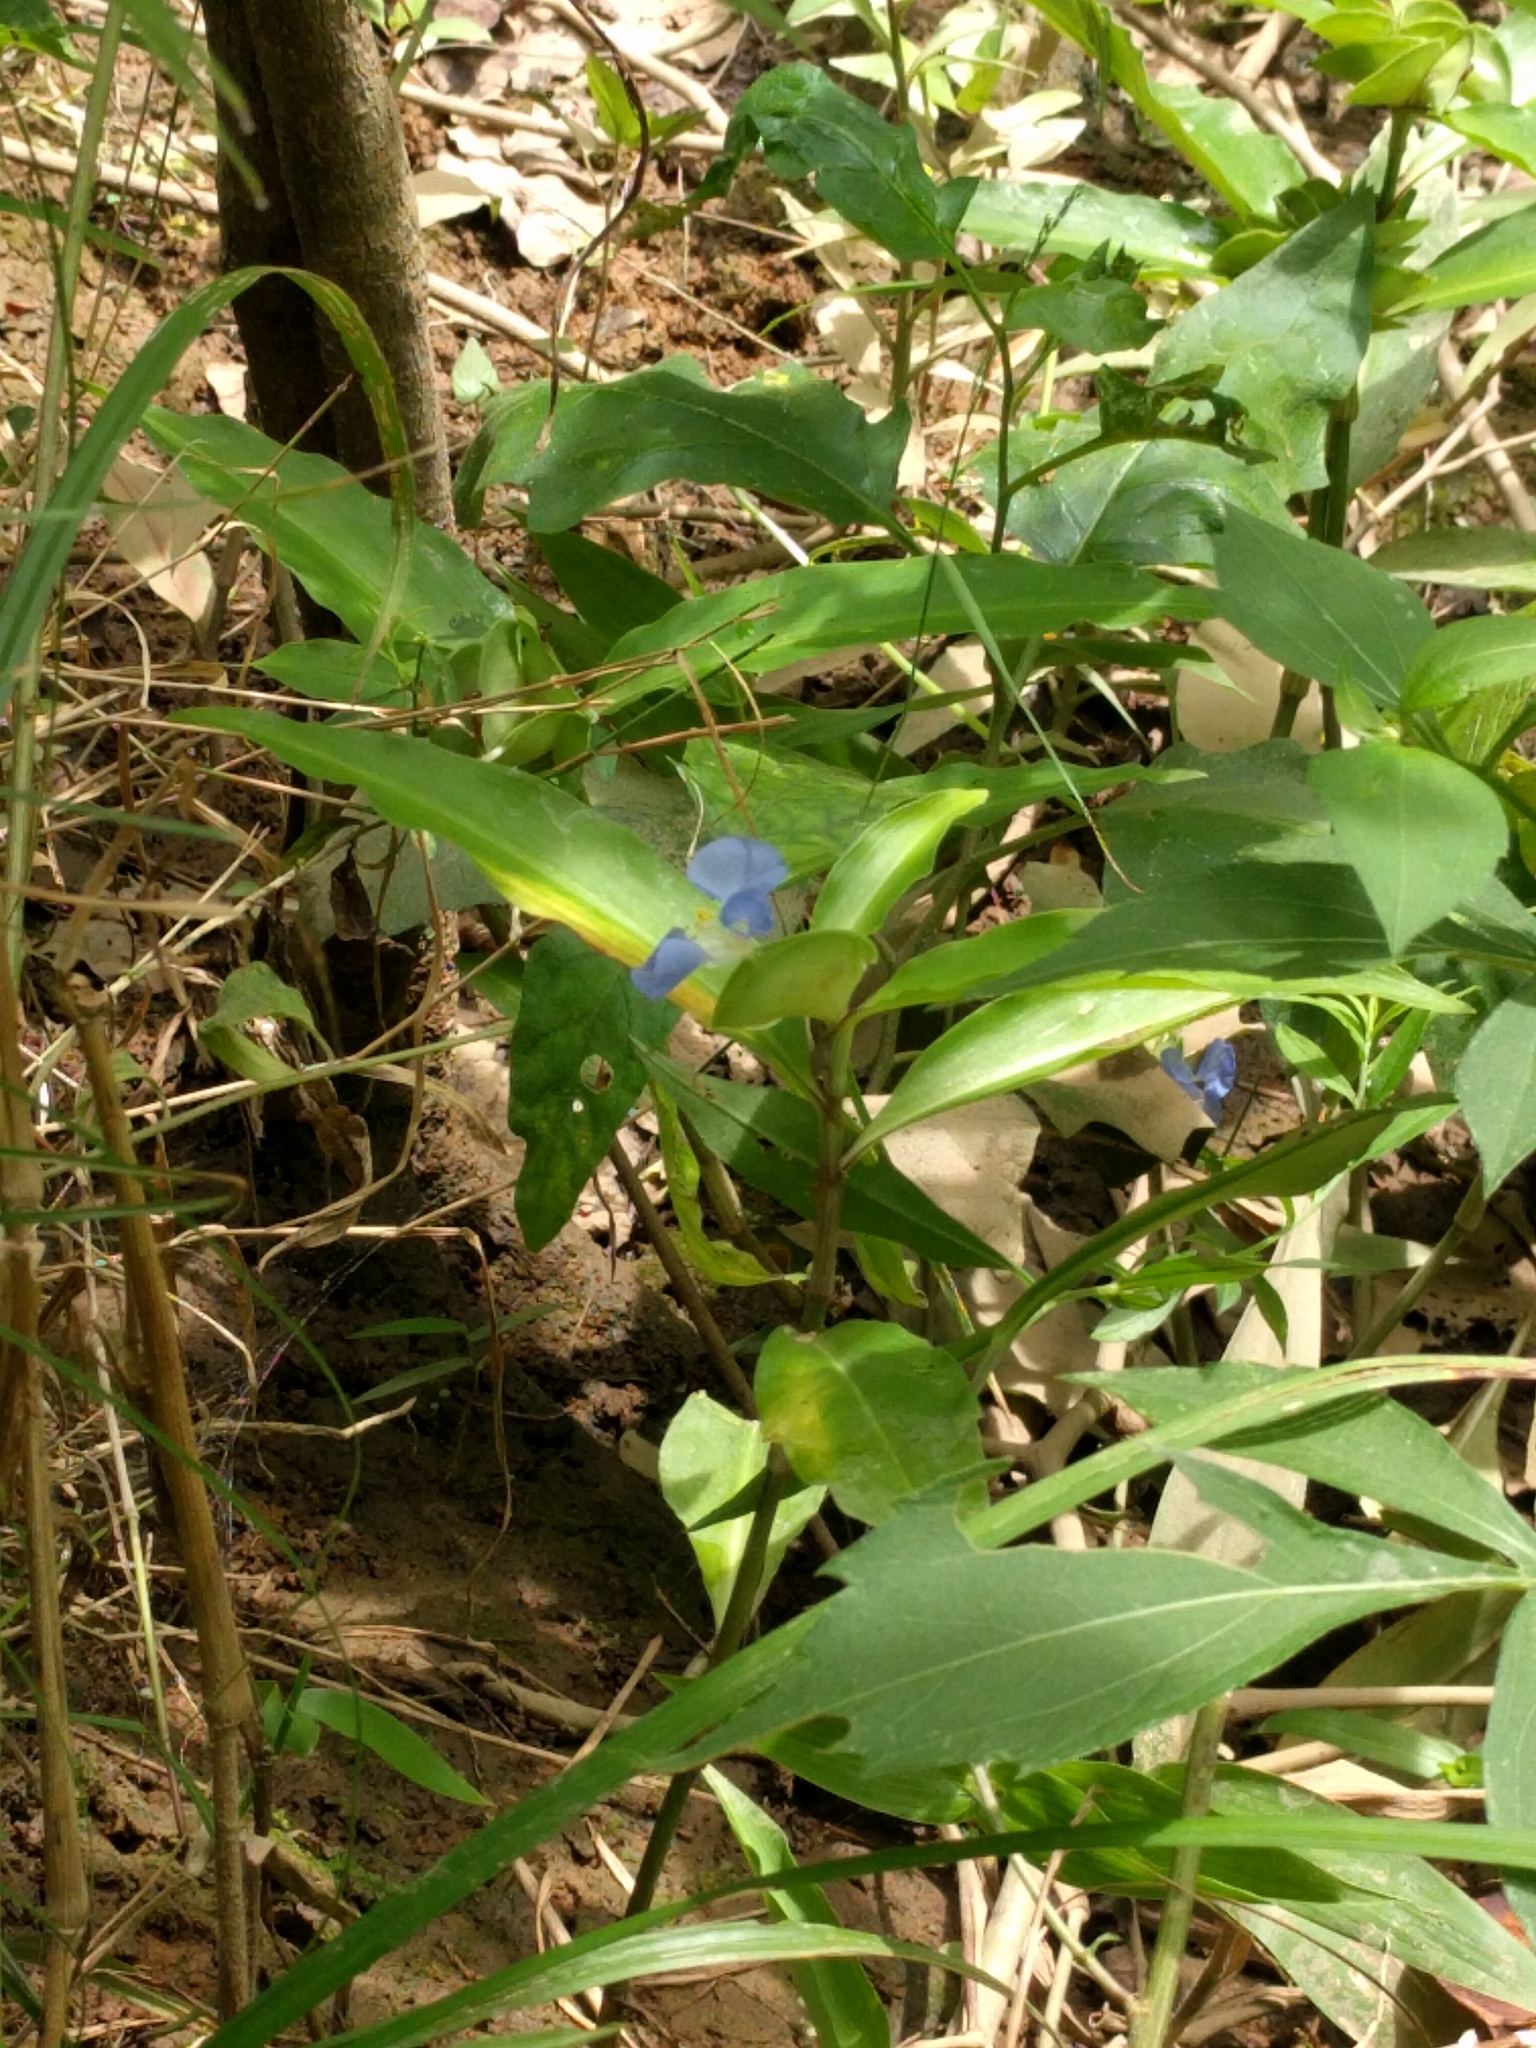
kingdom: Plantae
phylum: Tracheophyta
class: Liliopsida
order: Commelinales
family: Commelinaceae
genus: Commelina
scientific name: Commelina virginica
